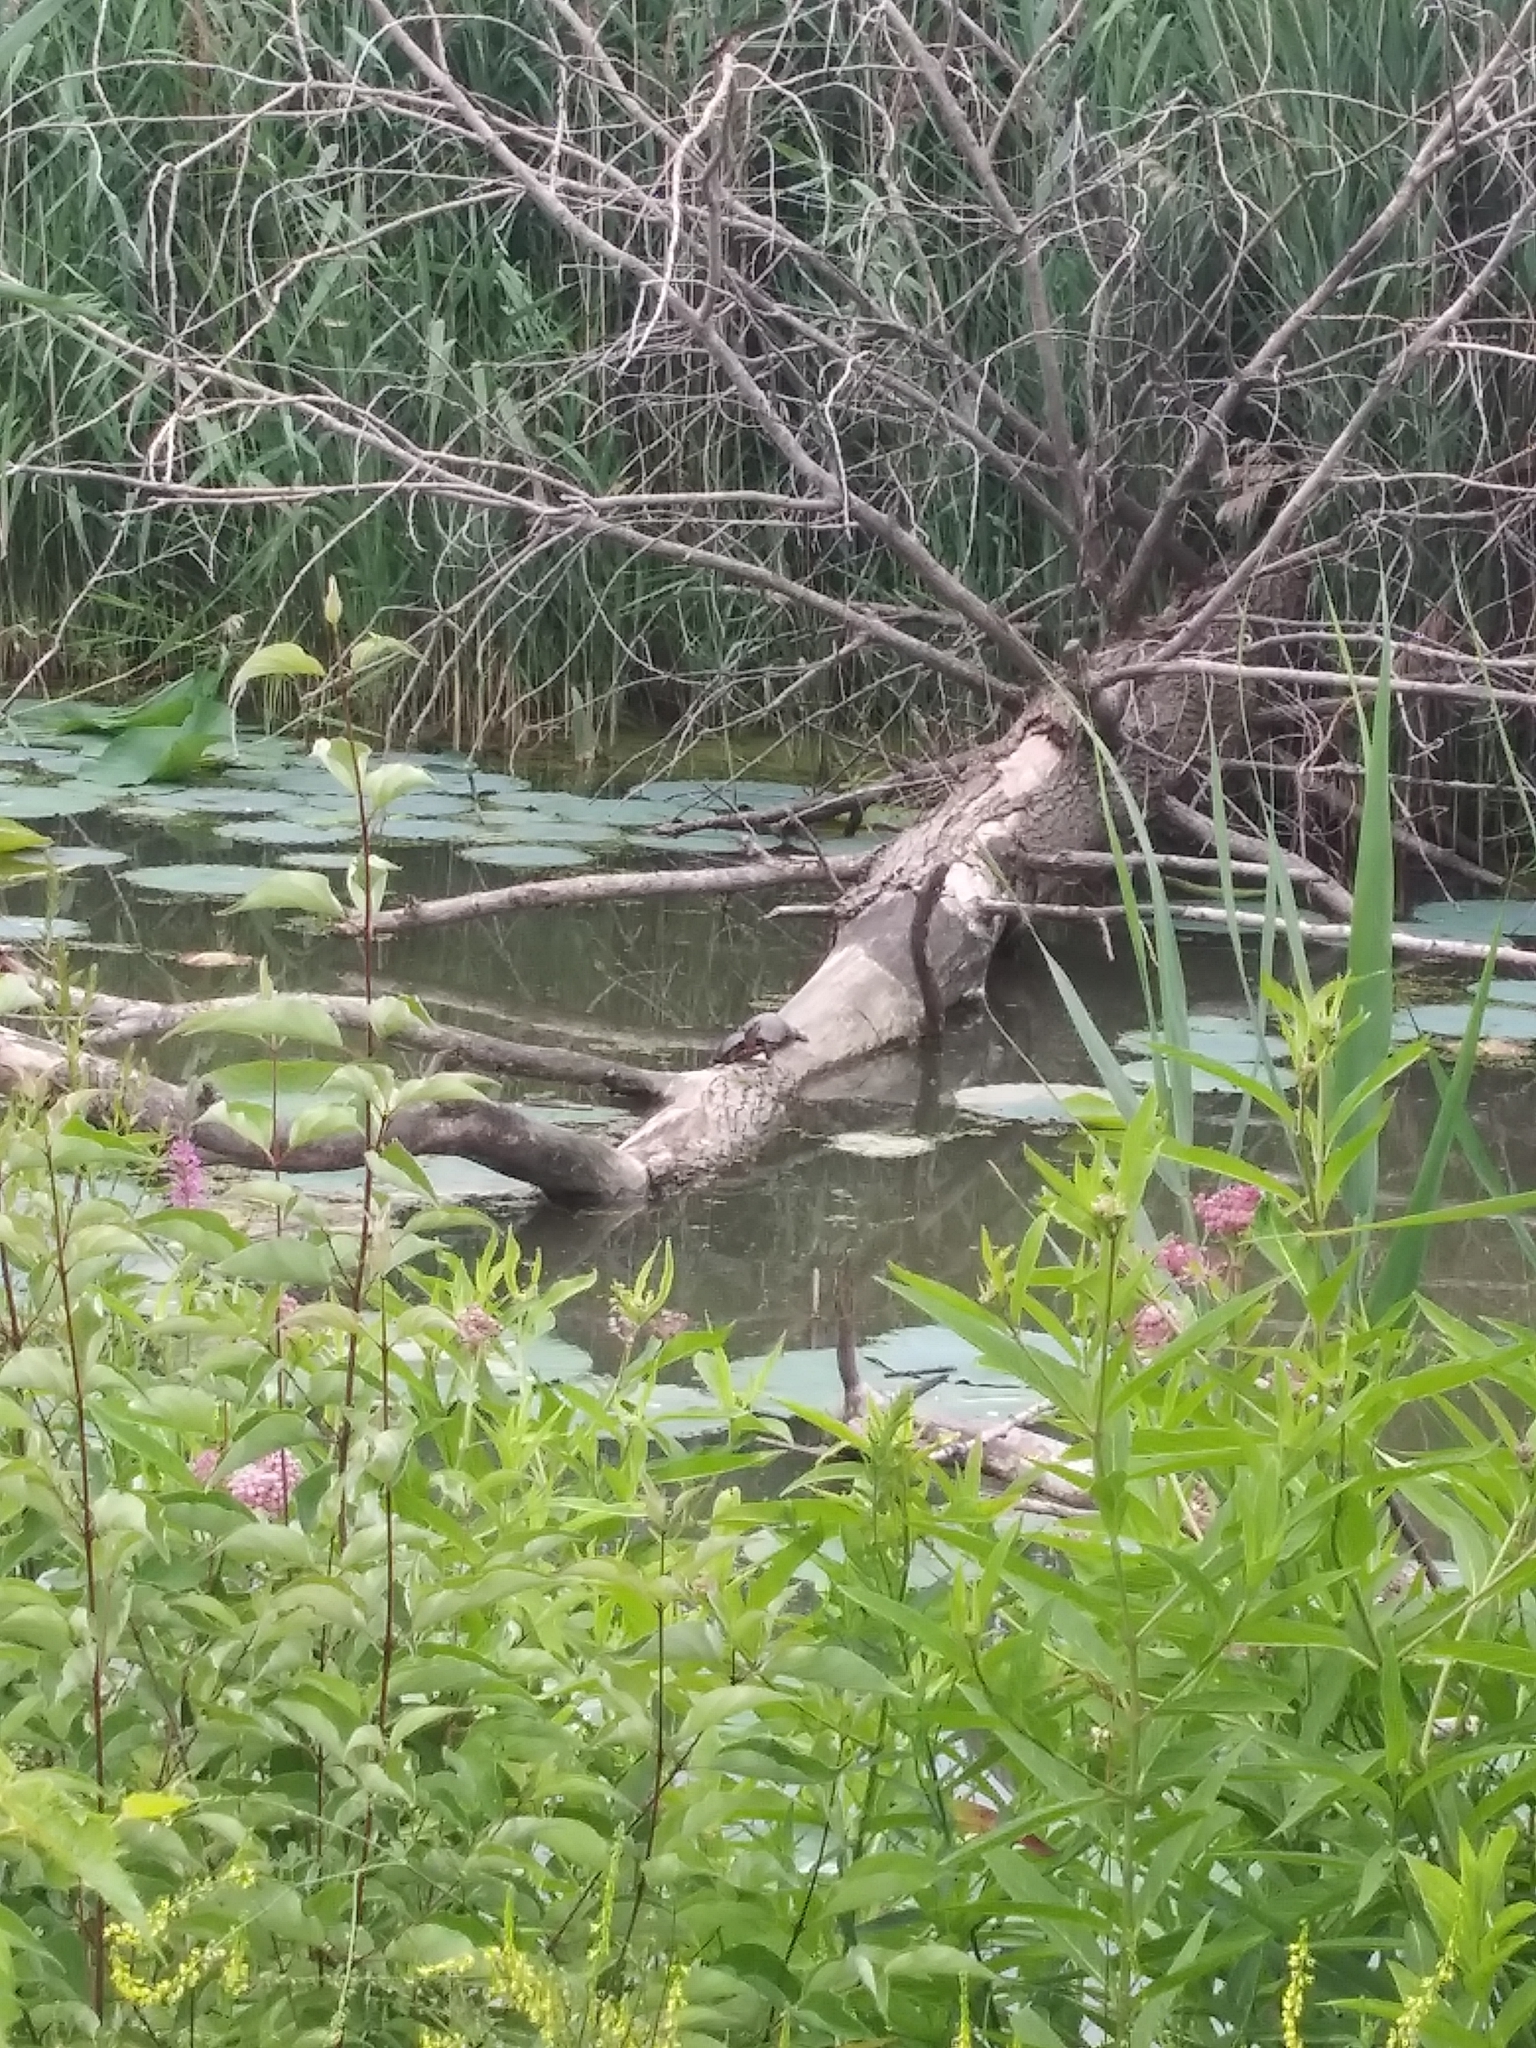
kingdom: Animalia
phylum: Chordata
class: Testudines
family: Emydidae
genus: Chrysemys
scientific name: Chrysemys picta
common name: Painted turtle
